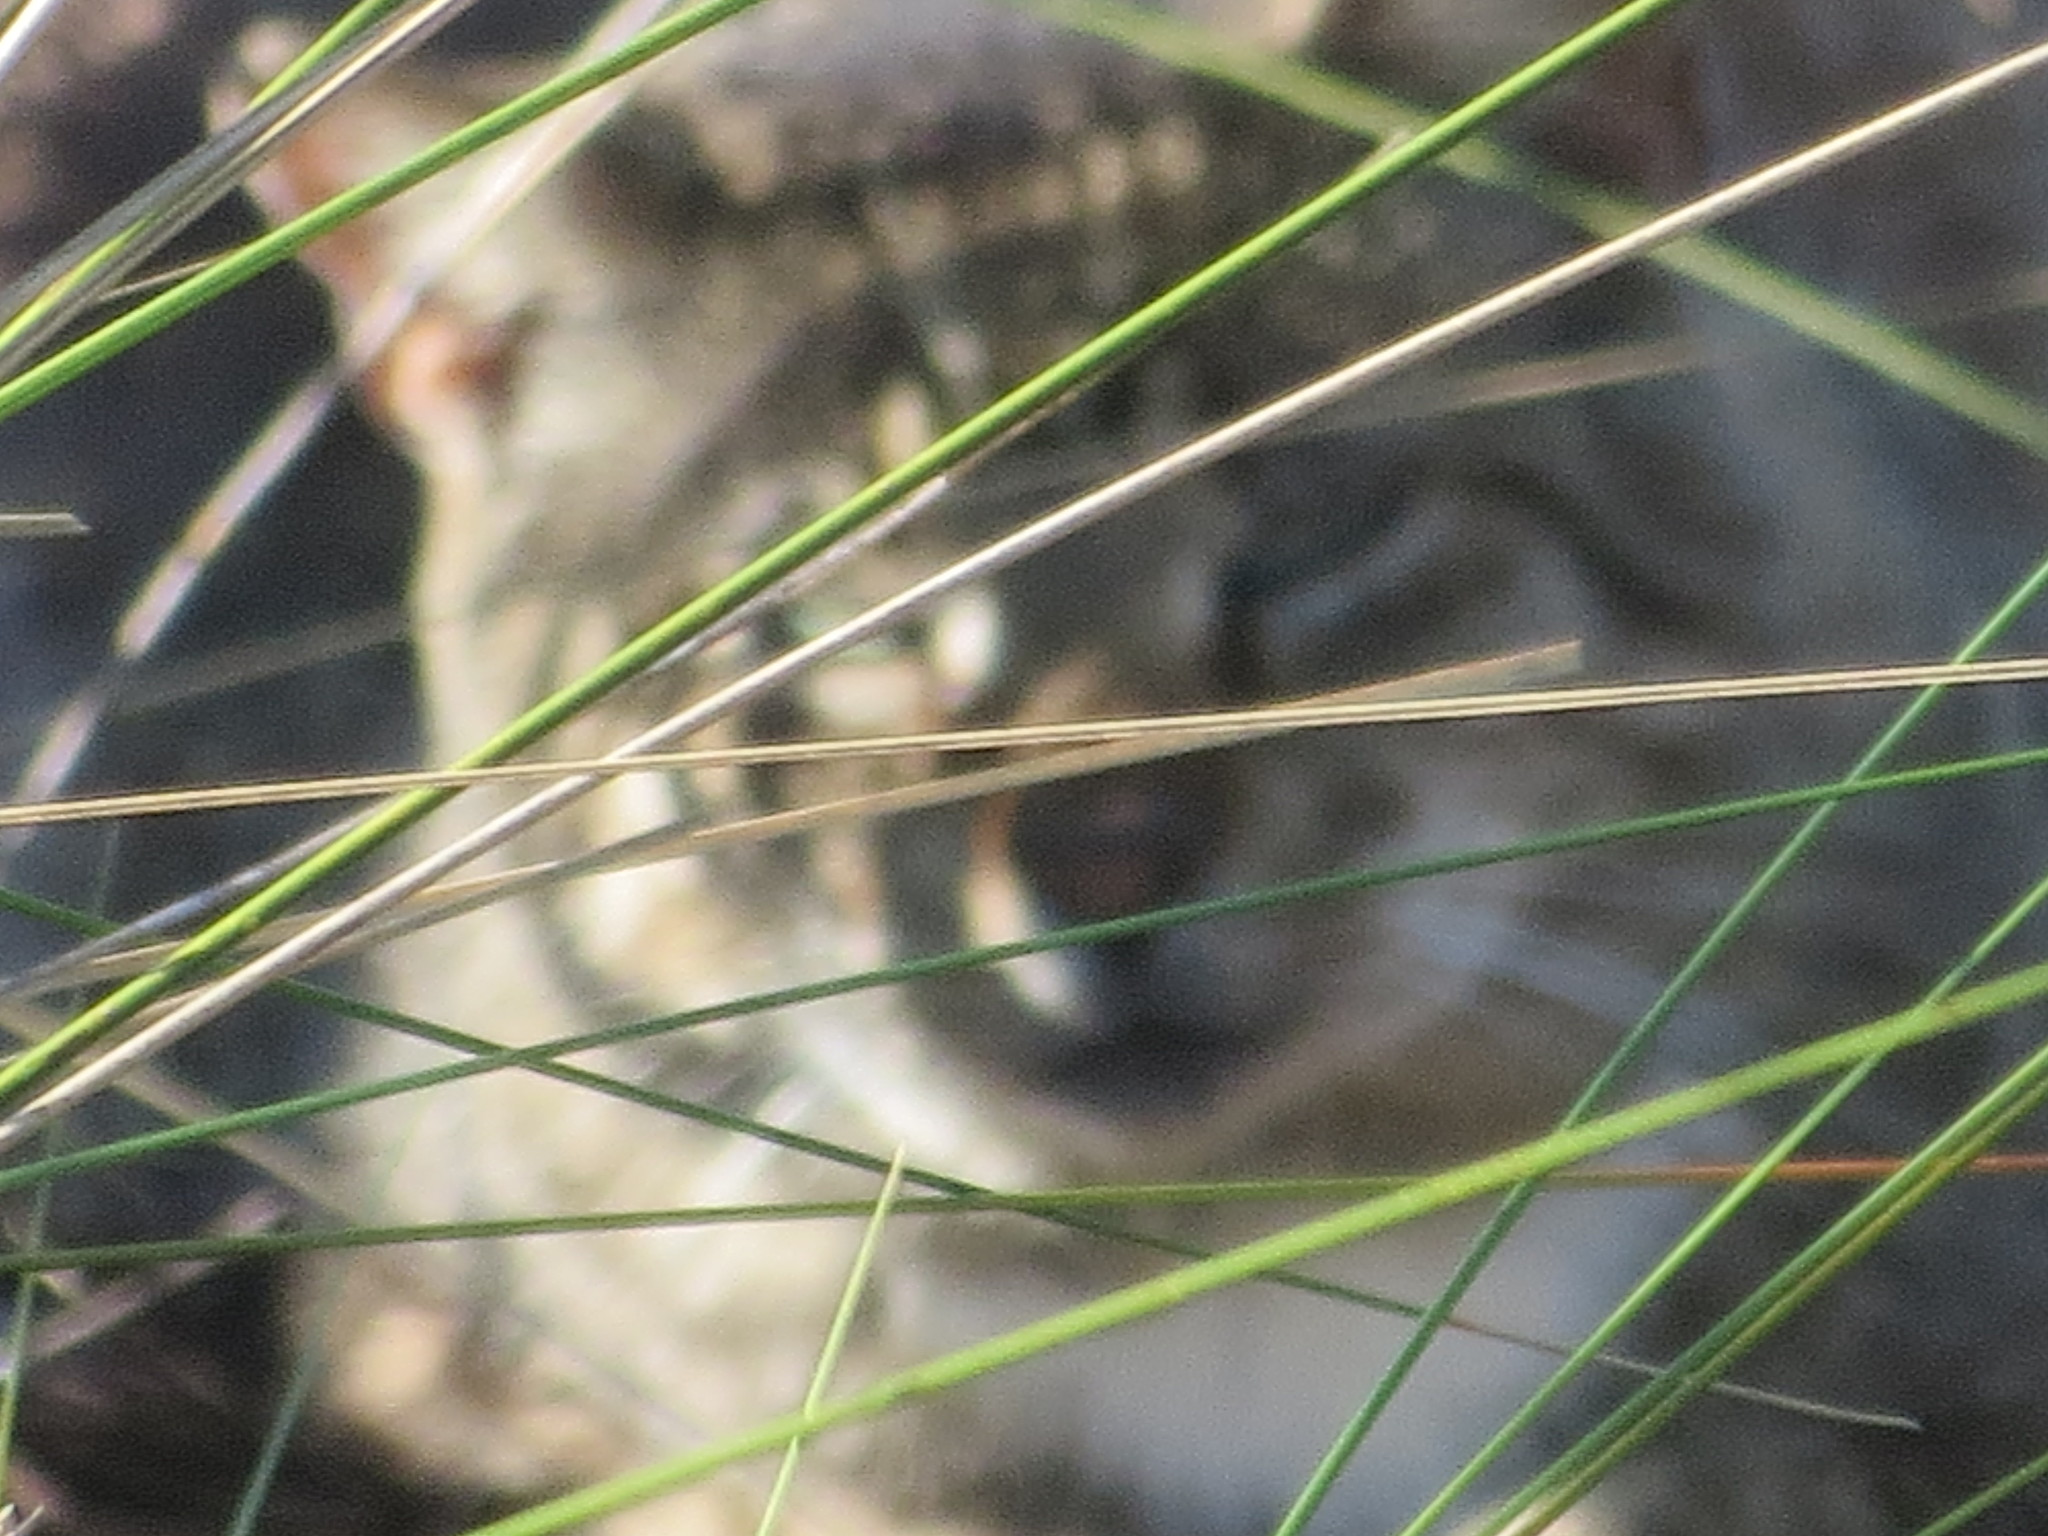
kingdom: Animalia
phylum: Chordata
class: Mammalia
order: Carnivora
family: Felidae
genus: Felis
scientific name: Felis catus
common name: Domestic cat
